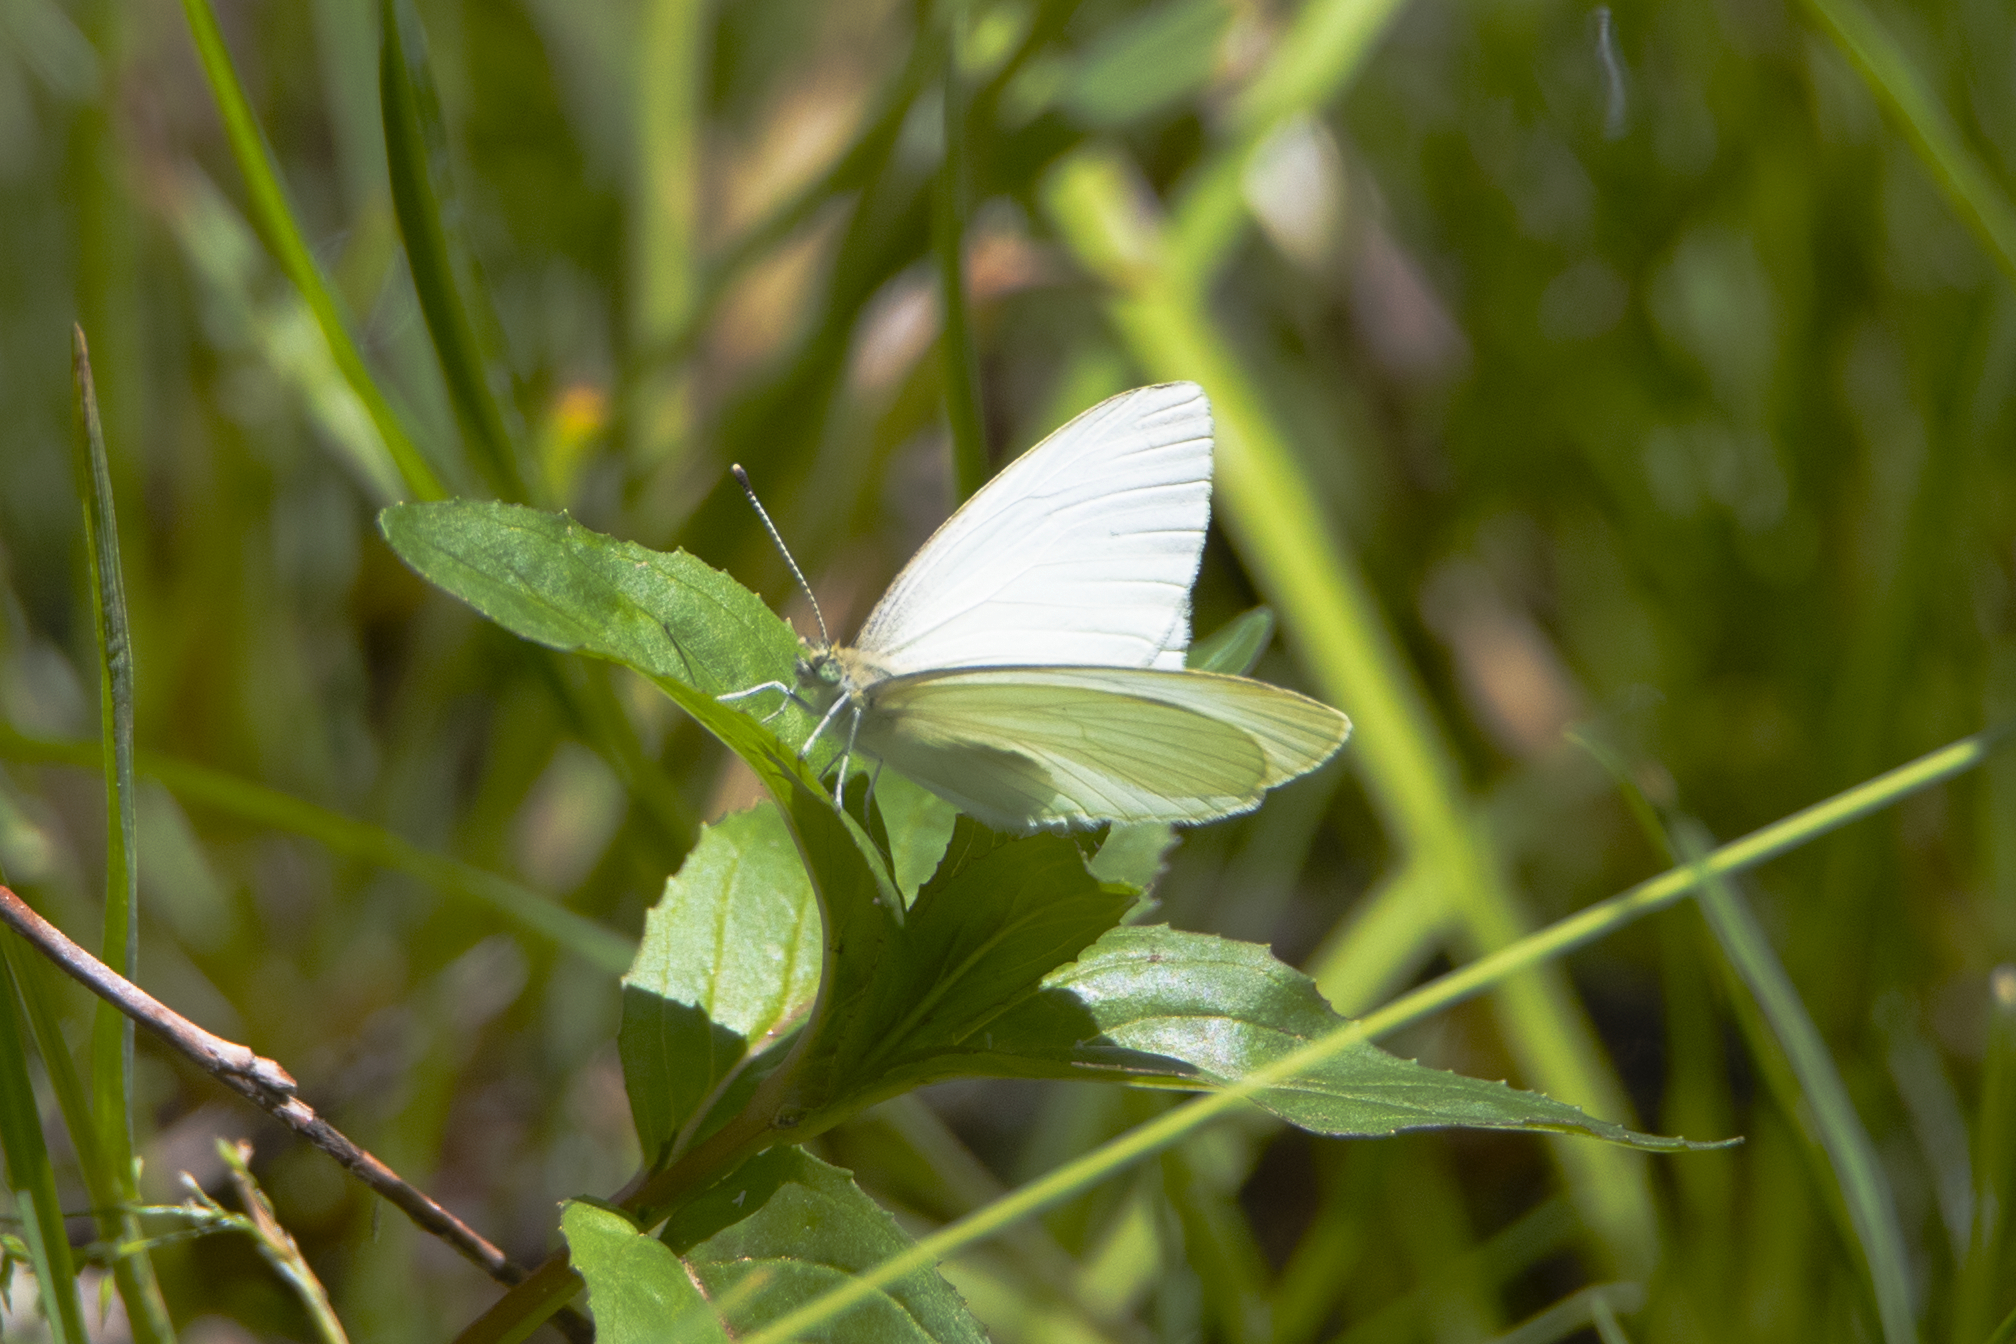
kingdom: Animalia
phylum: Arthropoda
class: Insecta
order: Lepidoptera
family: Pieridae
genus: Pieris
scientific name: Pieris marginalis
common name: Margined white
